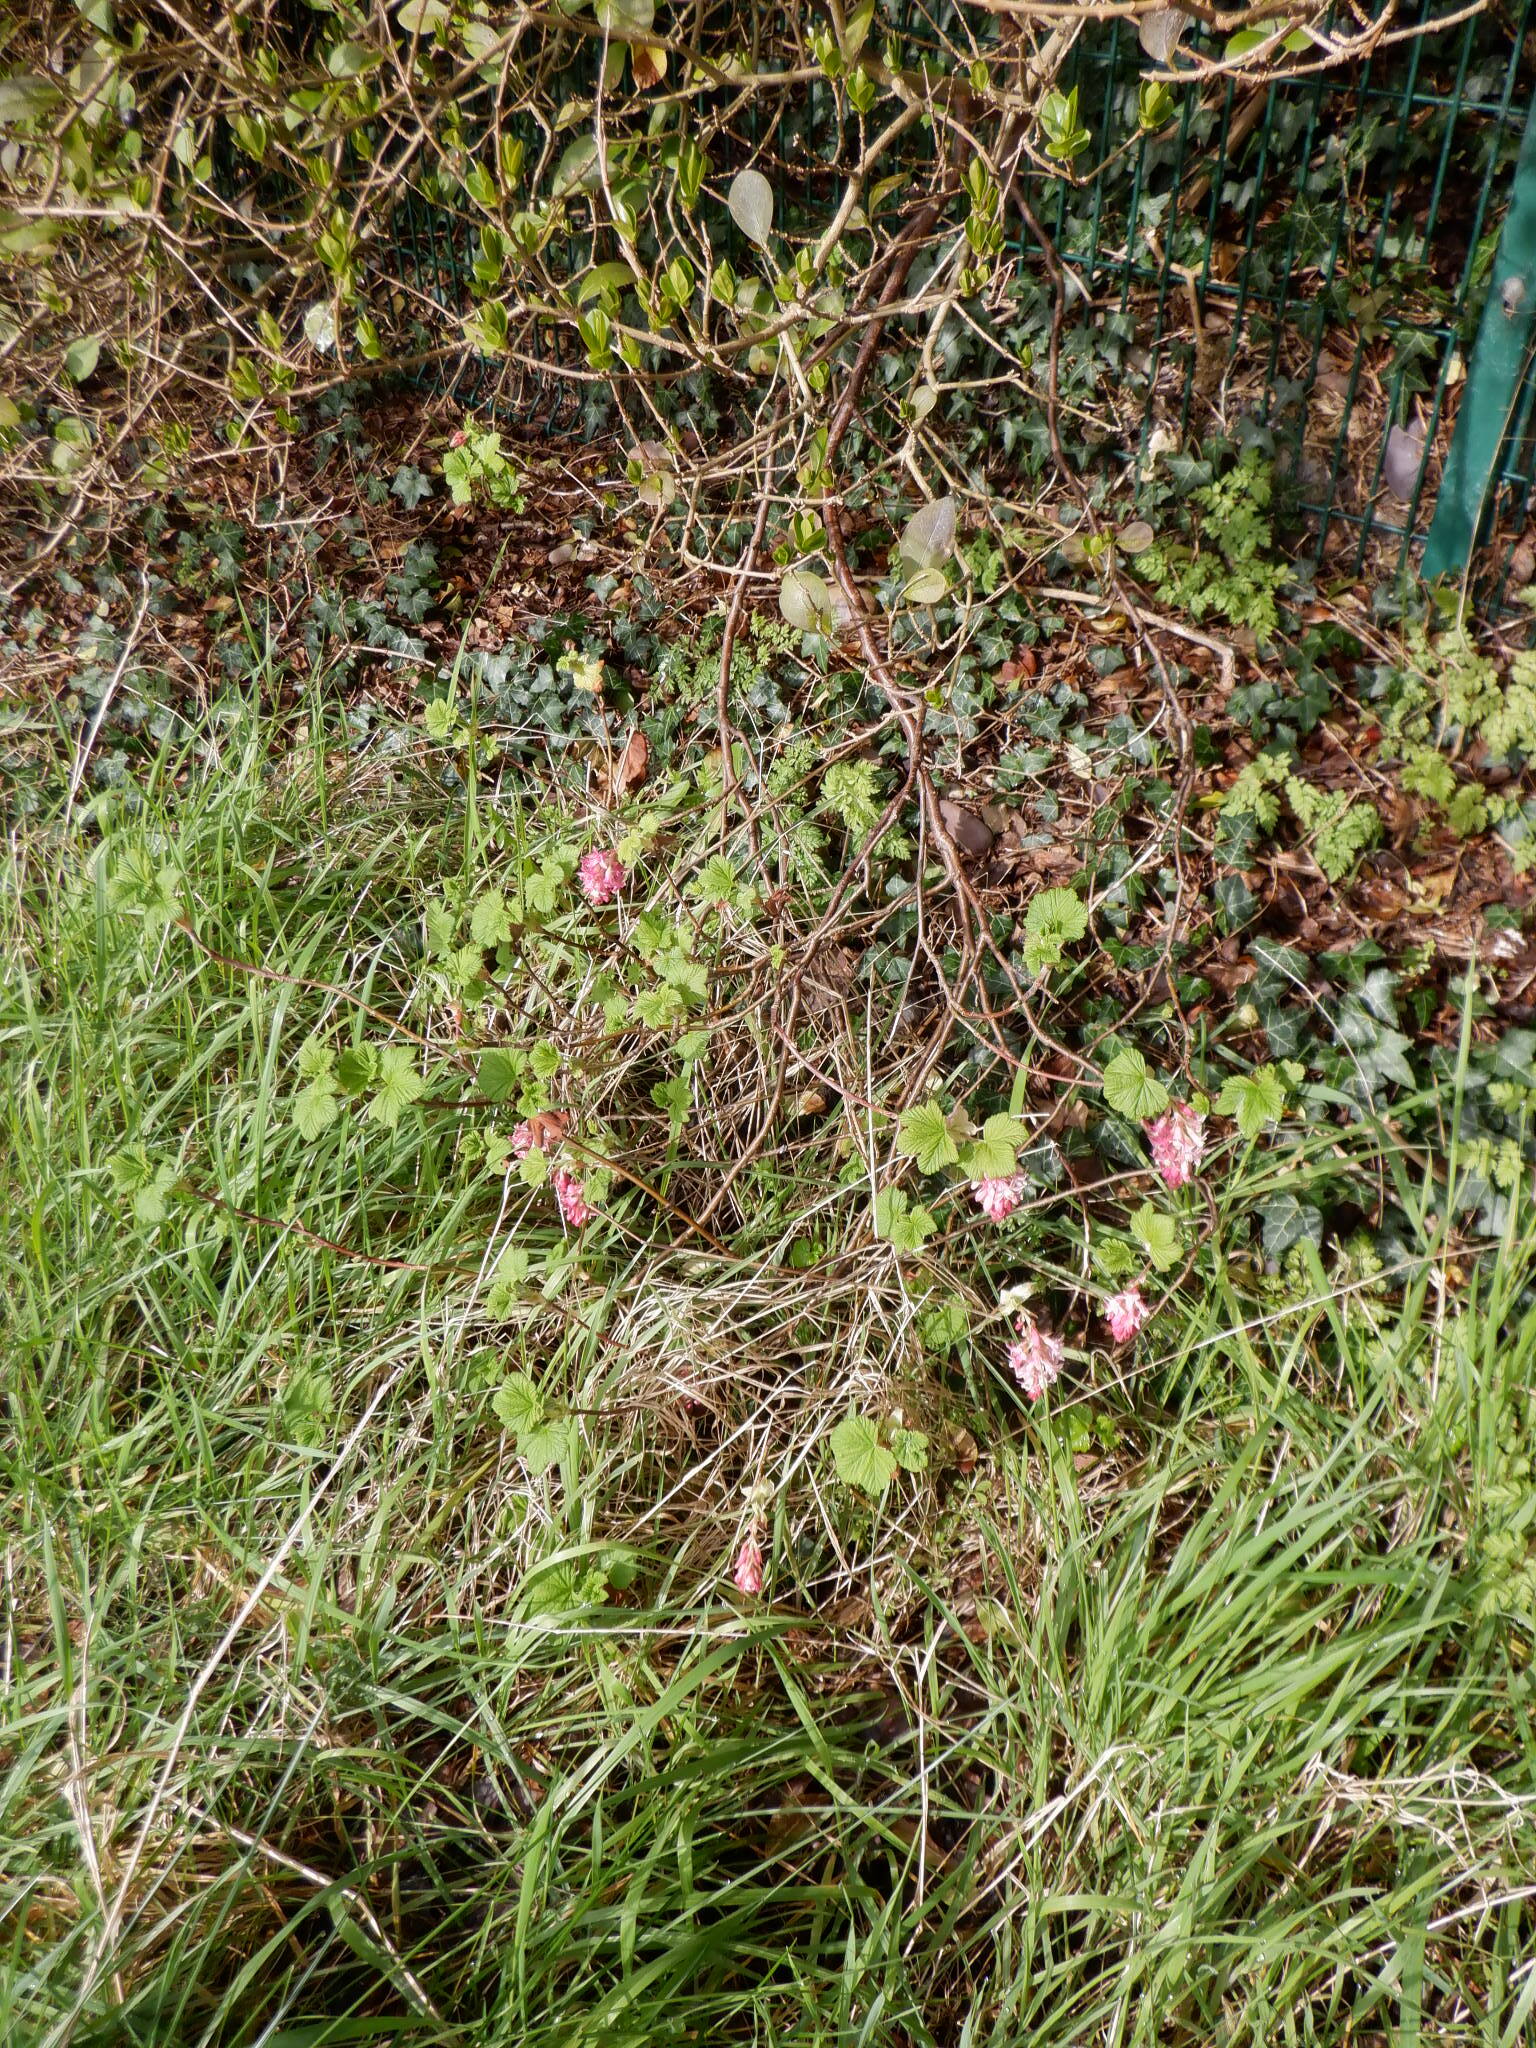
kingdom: Plantae
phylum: Tracheophyta
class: Magnoliopsida
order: Saxifragales
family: Grossulariaceae
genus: Ribes
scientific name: Ribes sanguineum
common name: Flowering currant
